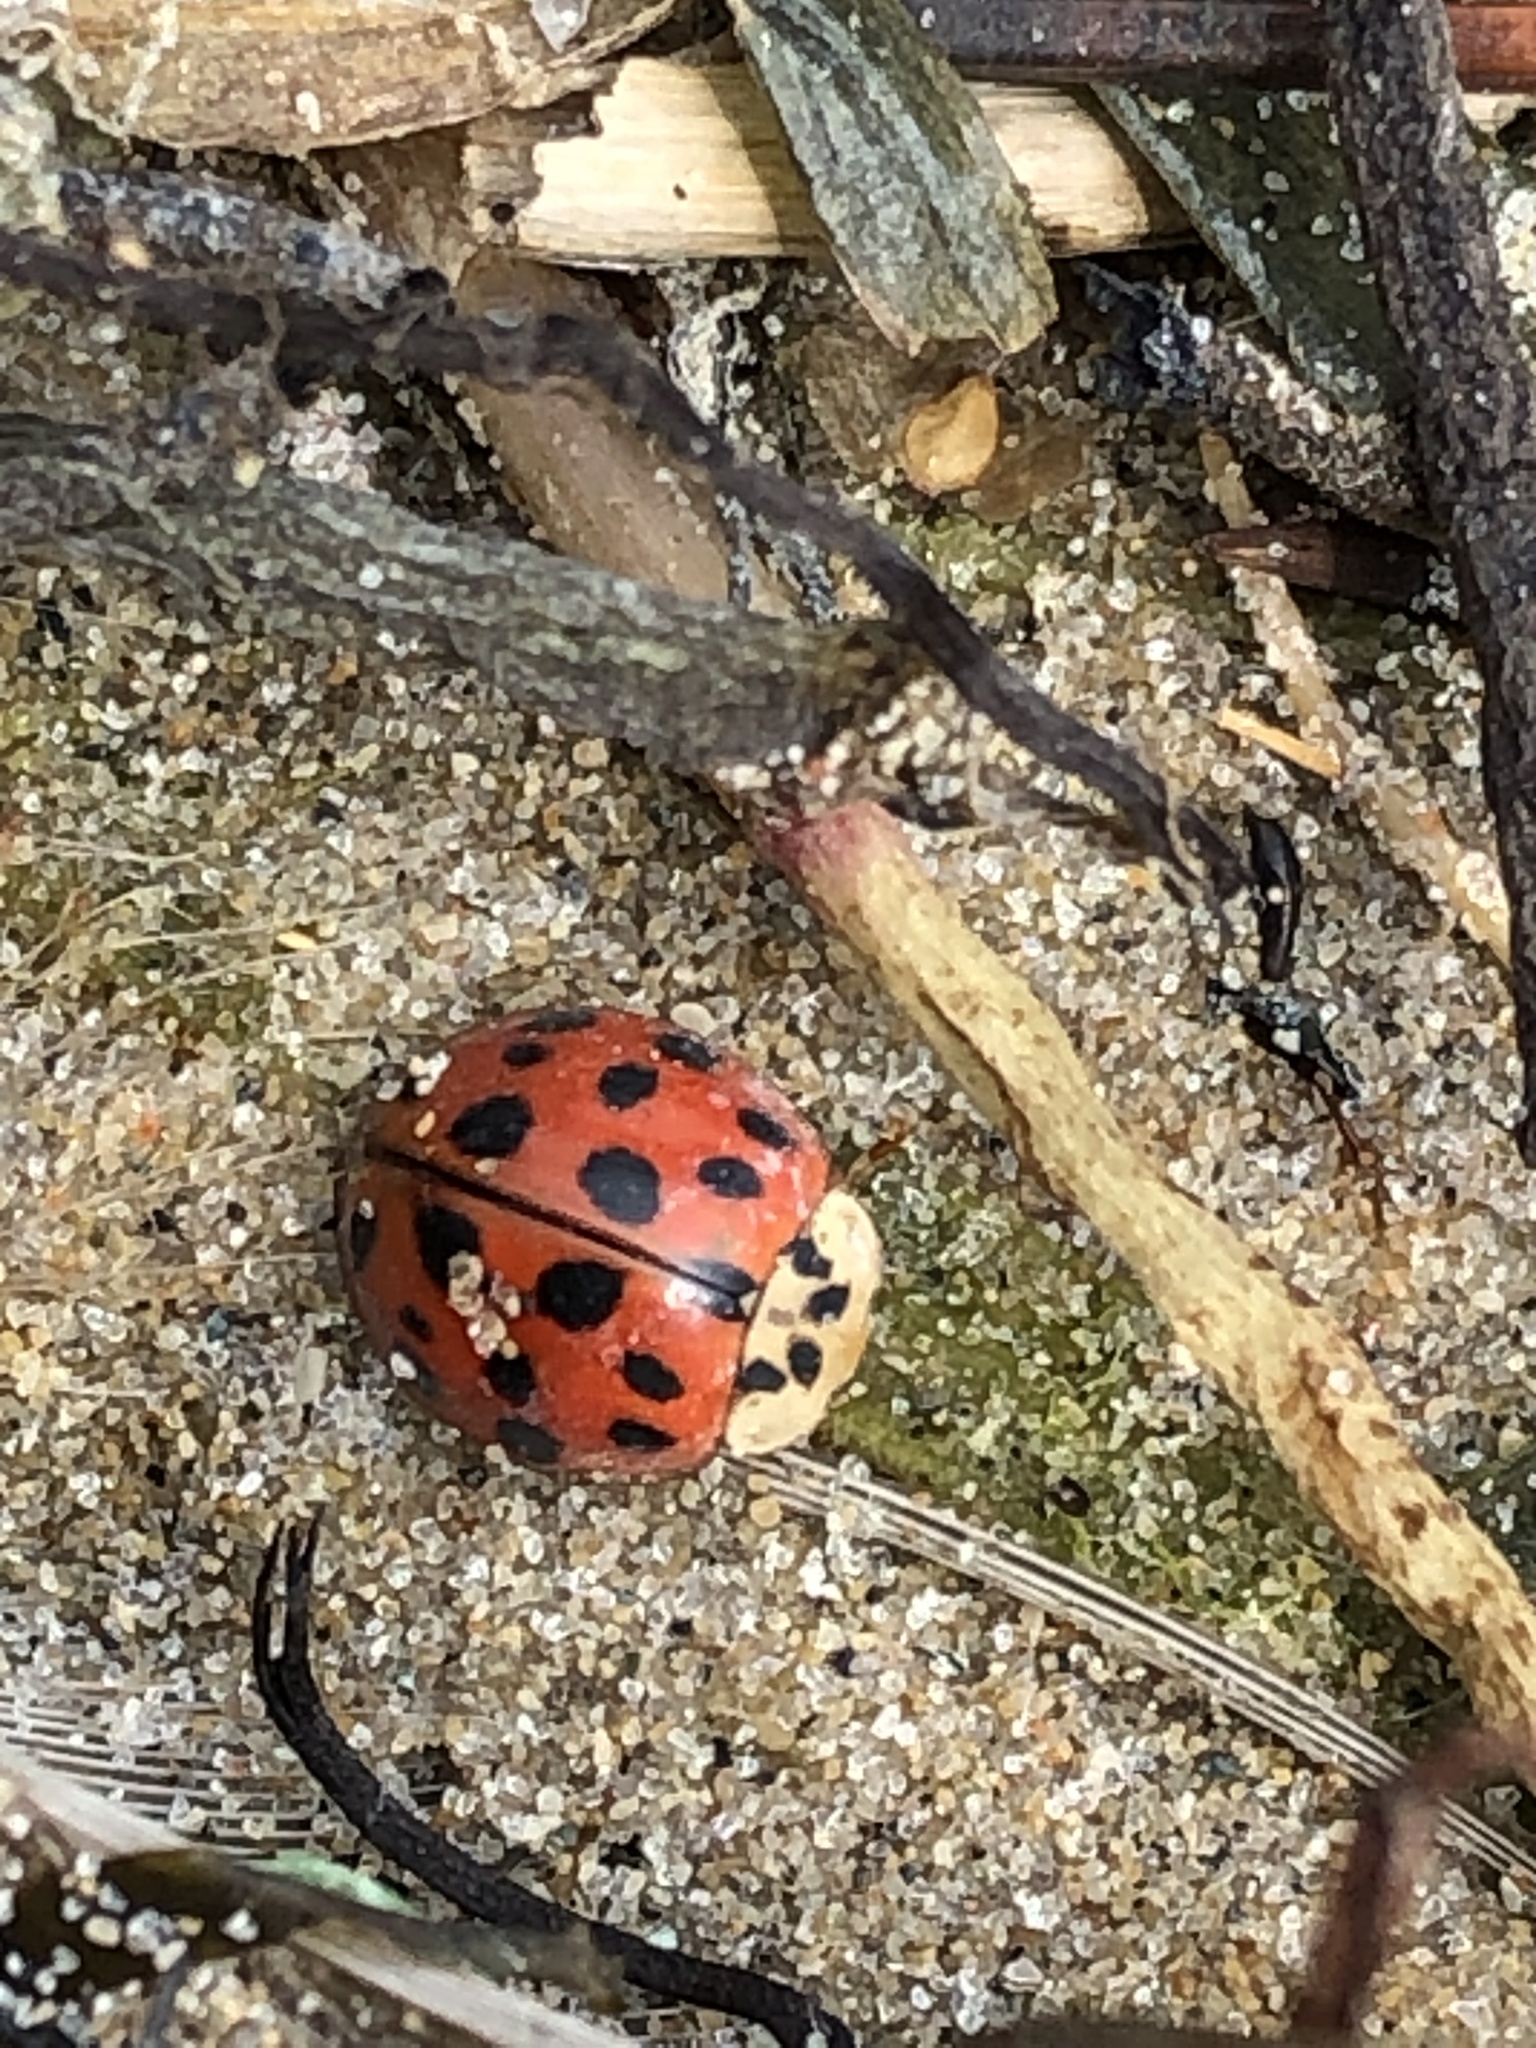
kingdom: Animalia
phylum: Arthropoda
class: Insecta
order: Coleoptera
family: Coccinellidae
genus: Harmonia
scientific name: Harmonia axyridis
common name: Harlequin ladybird
